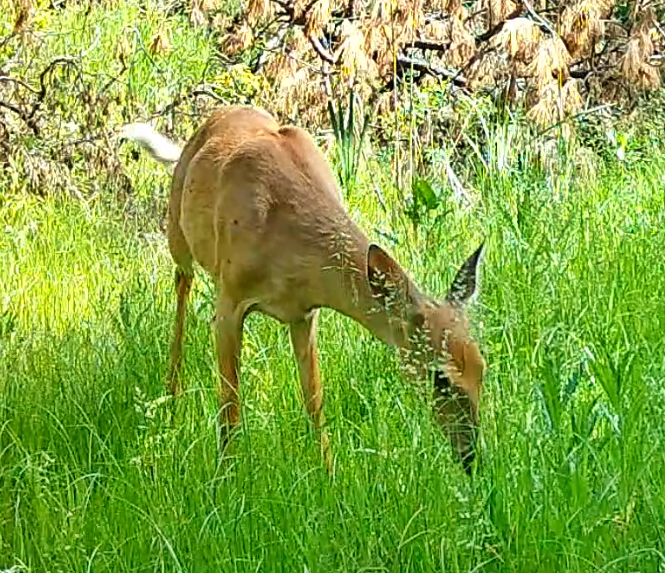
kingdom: Animalia
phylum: Chordata
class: Mammalia
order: Artiodactyla
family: Cervidae
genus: Odocoileus
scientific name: Odocoileus virginianus
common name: White-tailed deer
